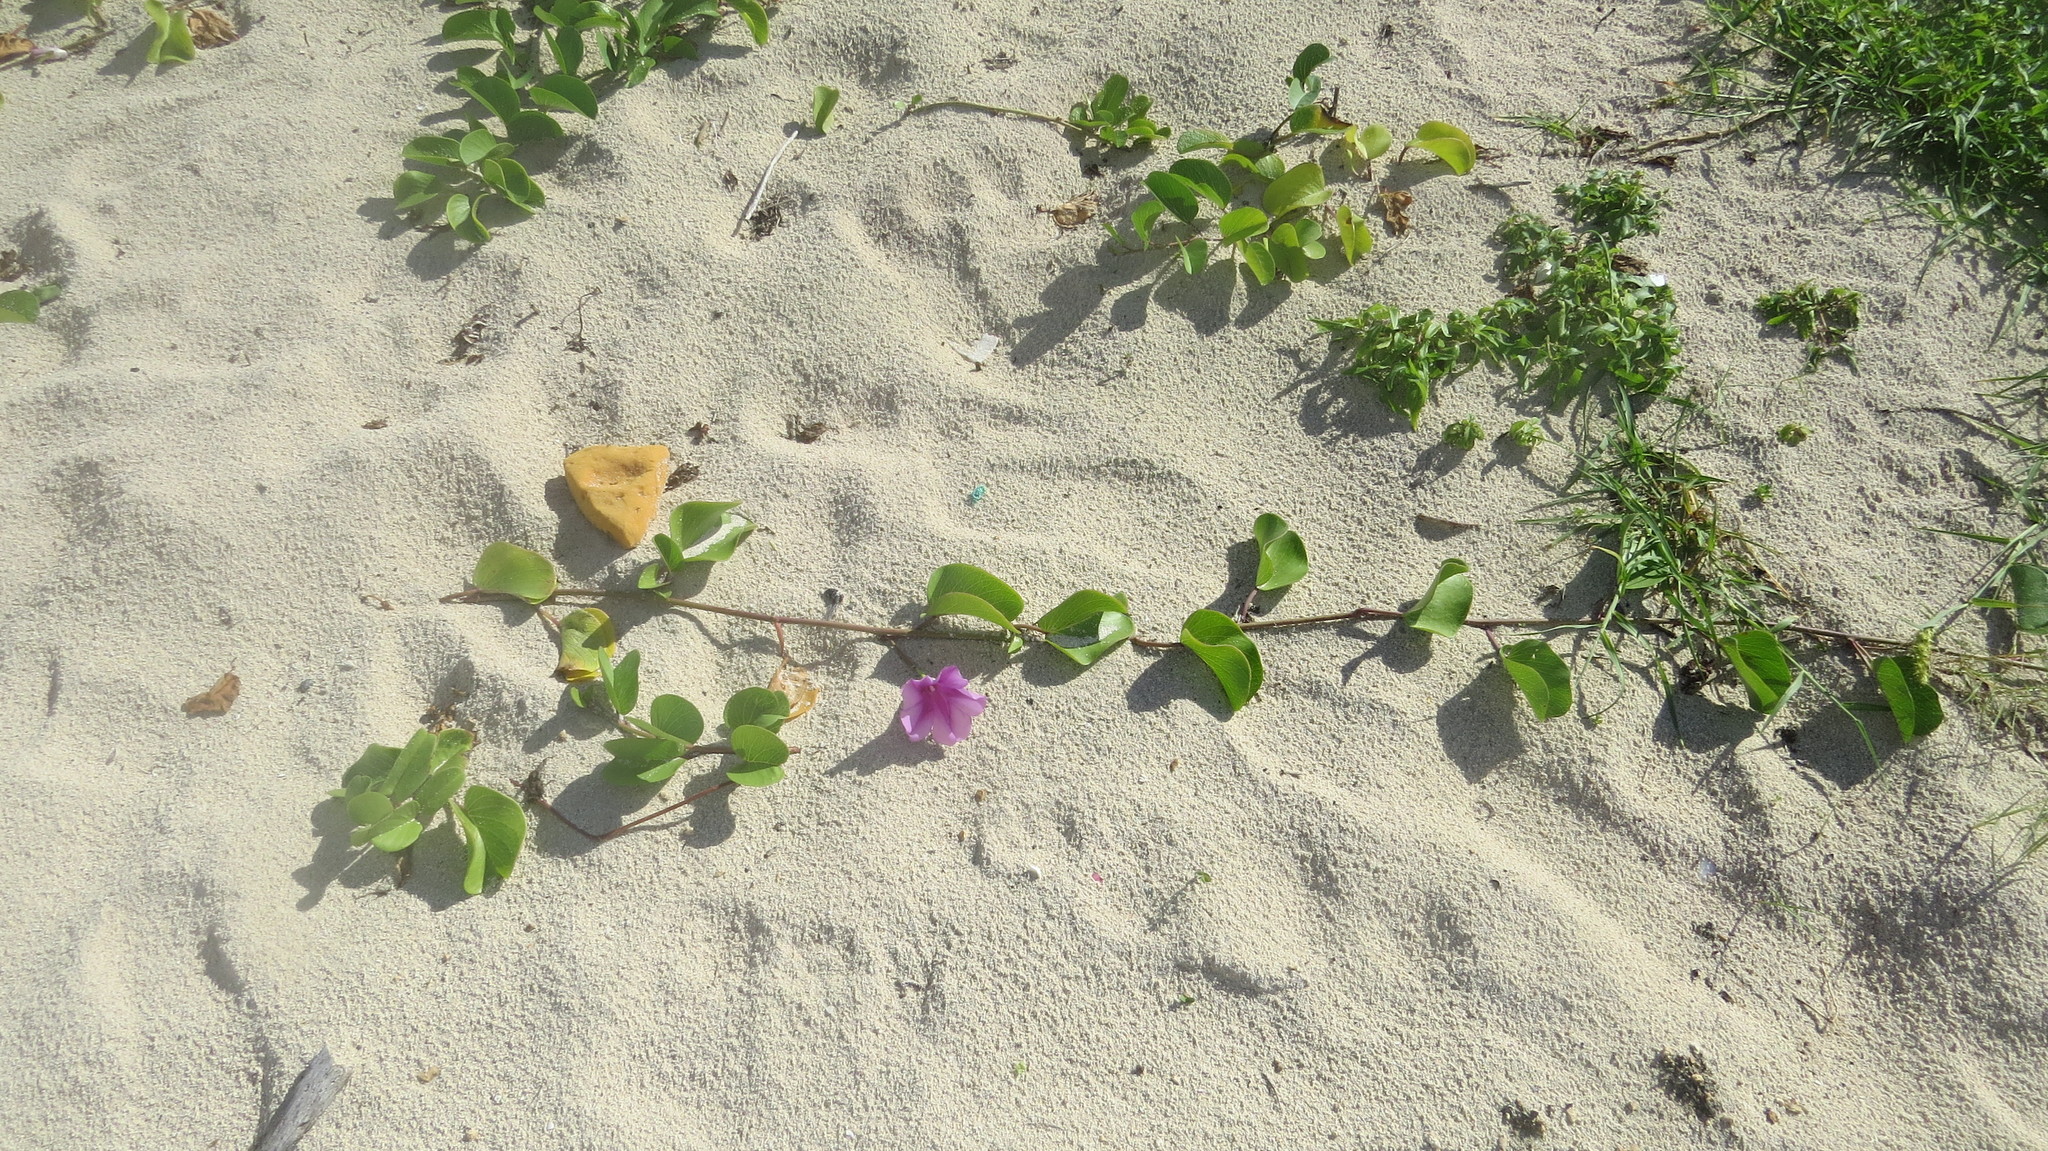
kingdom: Plantae
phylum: Tracheophyta
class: Magnoliopsida
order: Solanales
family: Convolvulaceae
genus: Ipomoea
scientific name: Ipomoea pes-caprae
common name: Beach morning glory
